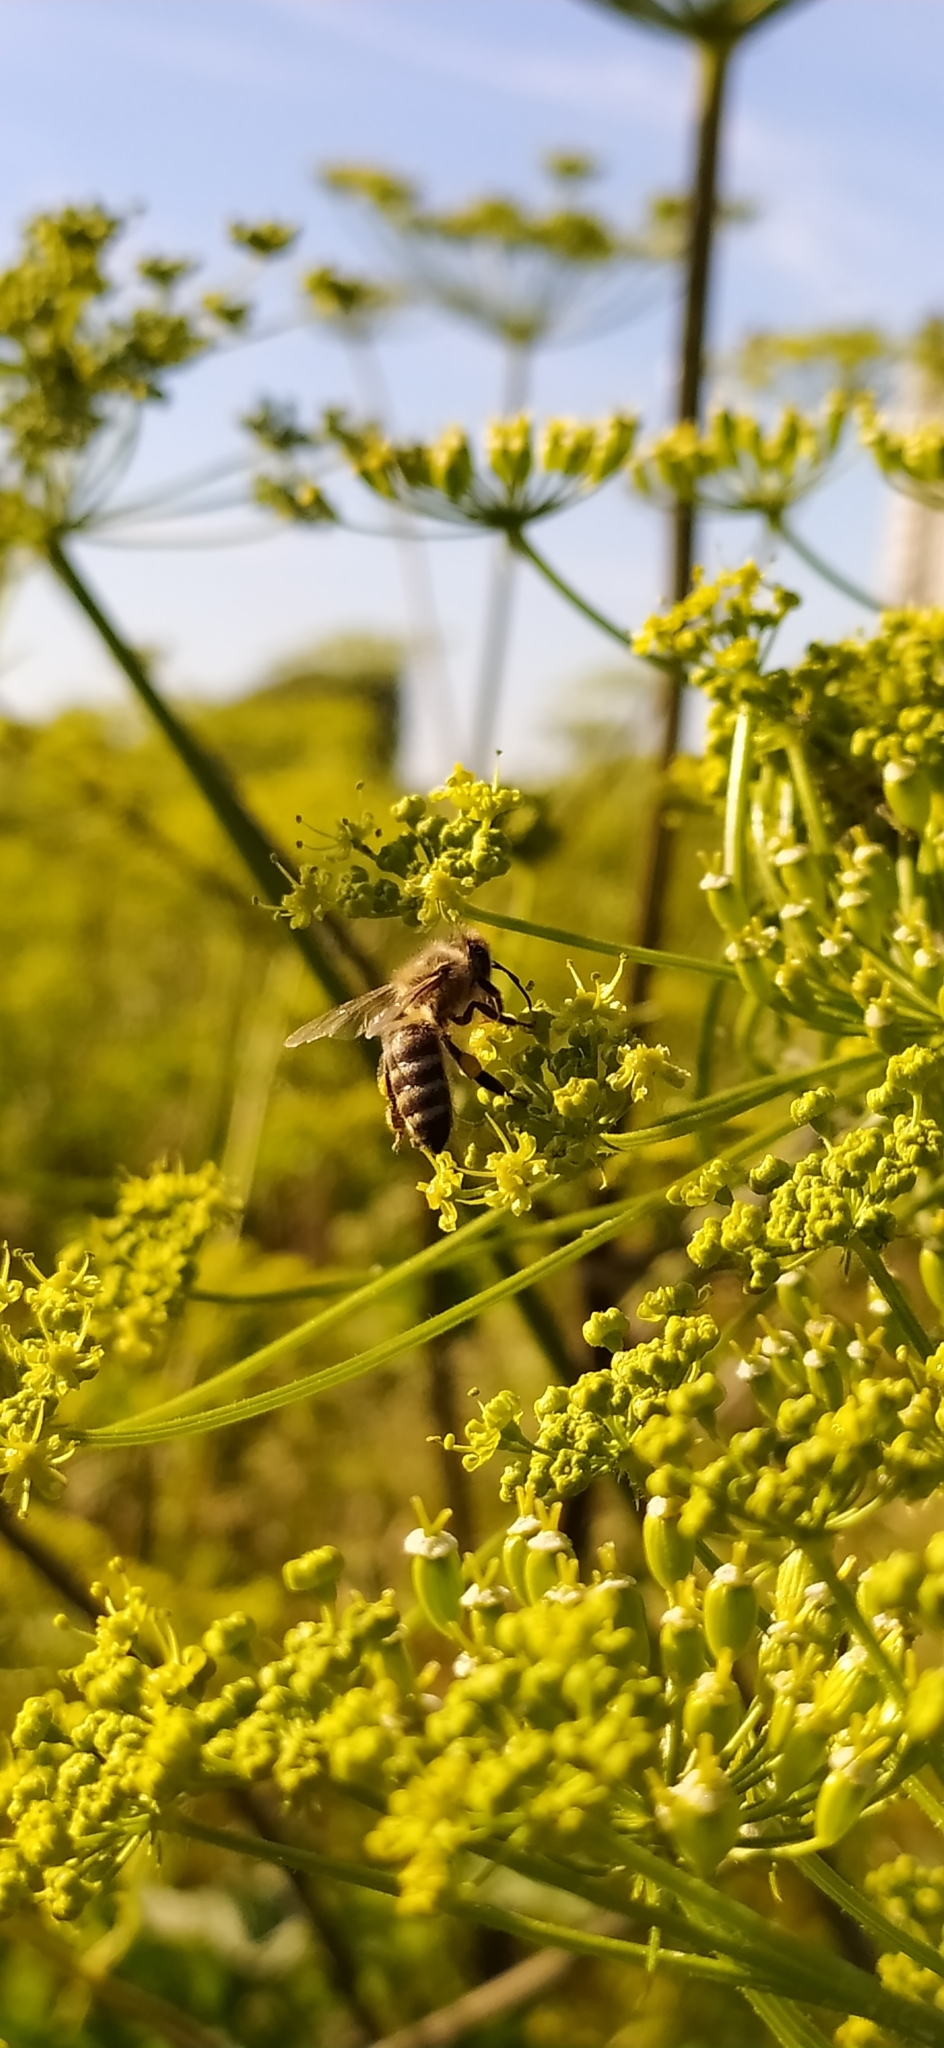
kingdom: Animalia
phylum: Arthropoda
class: Insecta
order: Hymenoptera
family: Apidae
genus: Apis
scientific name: Apis mellifera
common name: Honey bee
